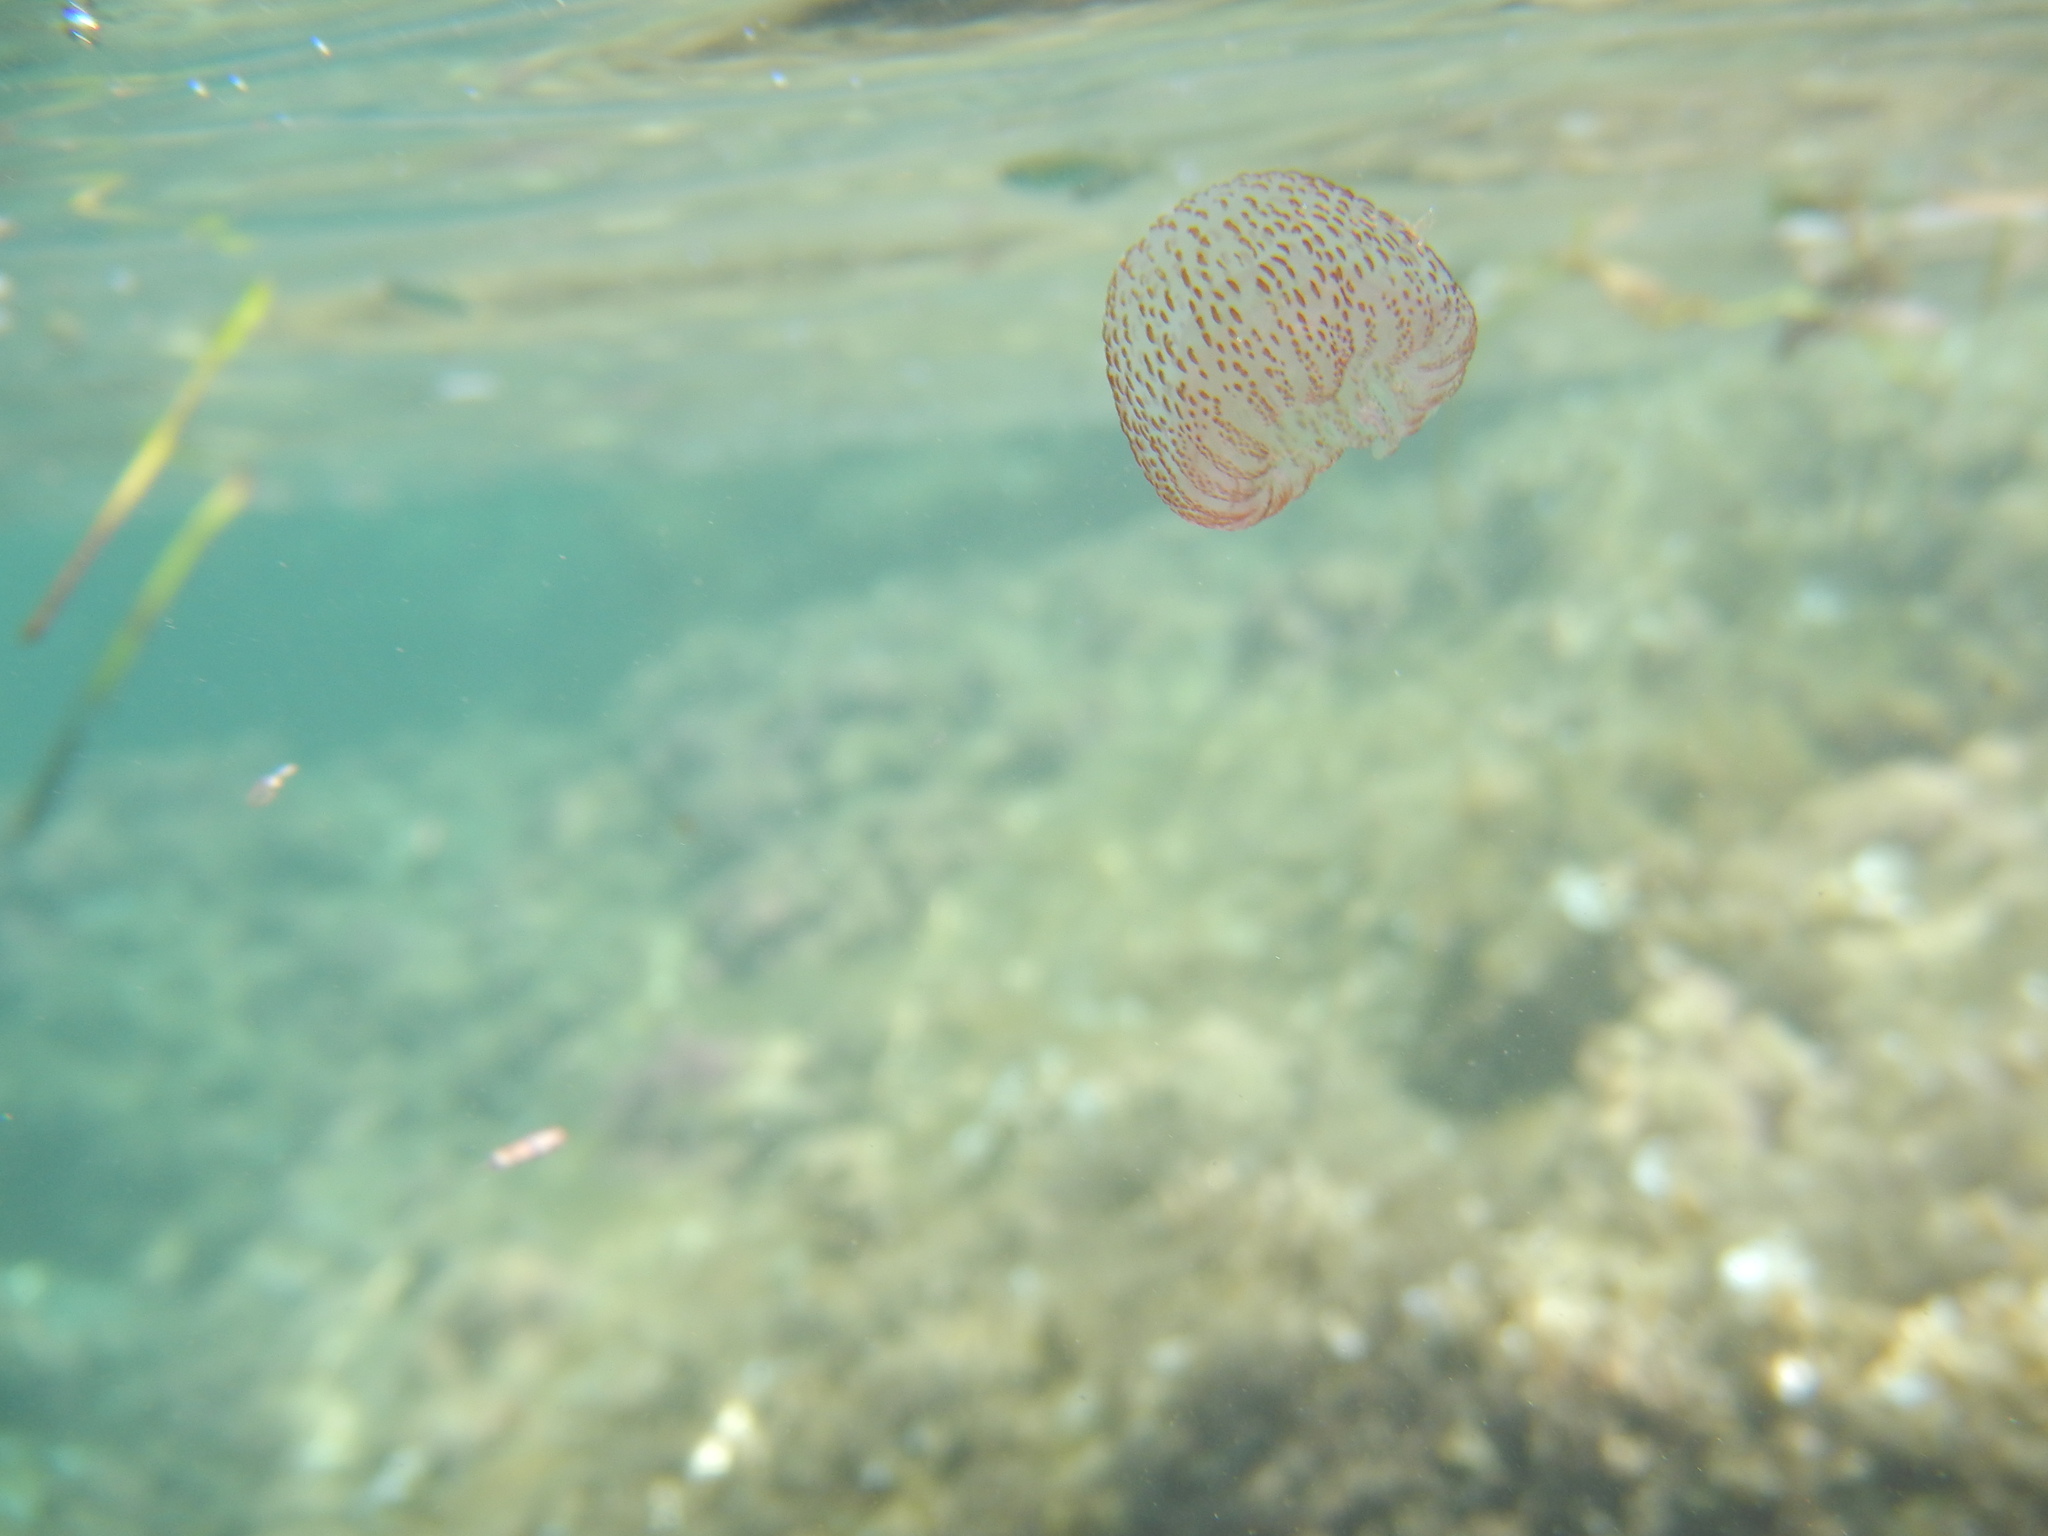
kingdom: Animalia
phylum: Cnidaria
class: Scyphozoa
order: Semaeostomeae
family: Pelagiidae
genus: Pelagia
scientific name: Pelagia noctiluca
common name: Mauve stinger
